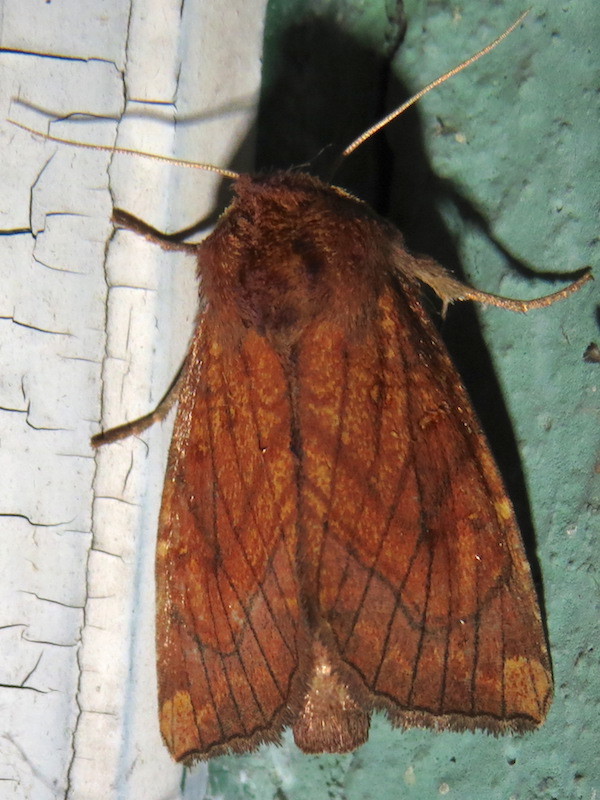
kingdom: Animalia
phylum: Arthropoda
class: Insecta
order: Lepidoptera
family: Noctuidae
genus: Papaipema
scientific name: Papaipema inquaesita
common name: Sensitive fern borer moth
